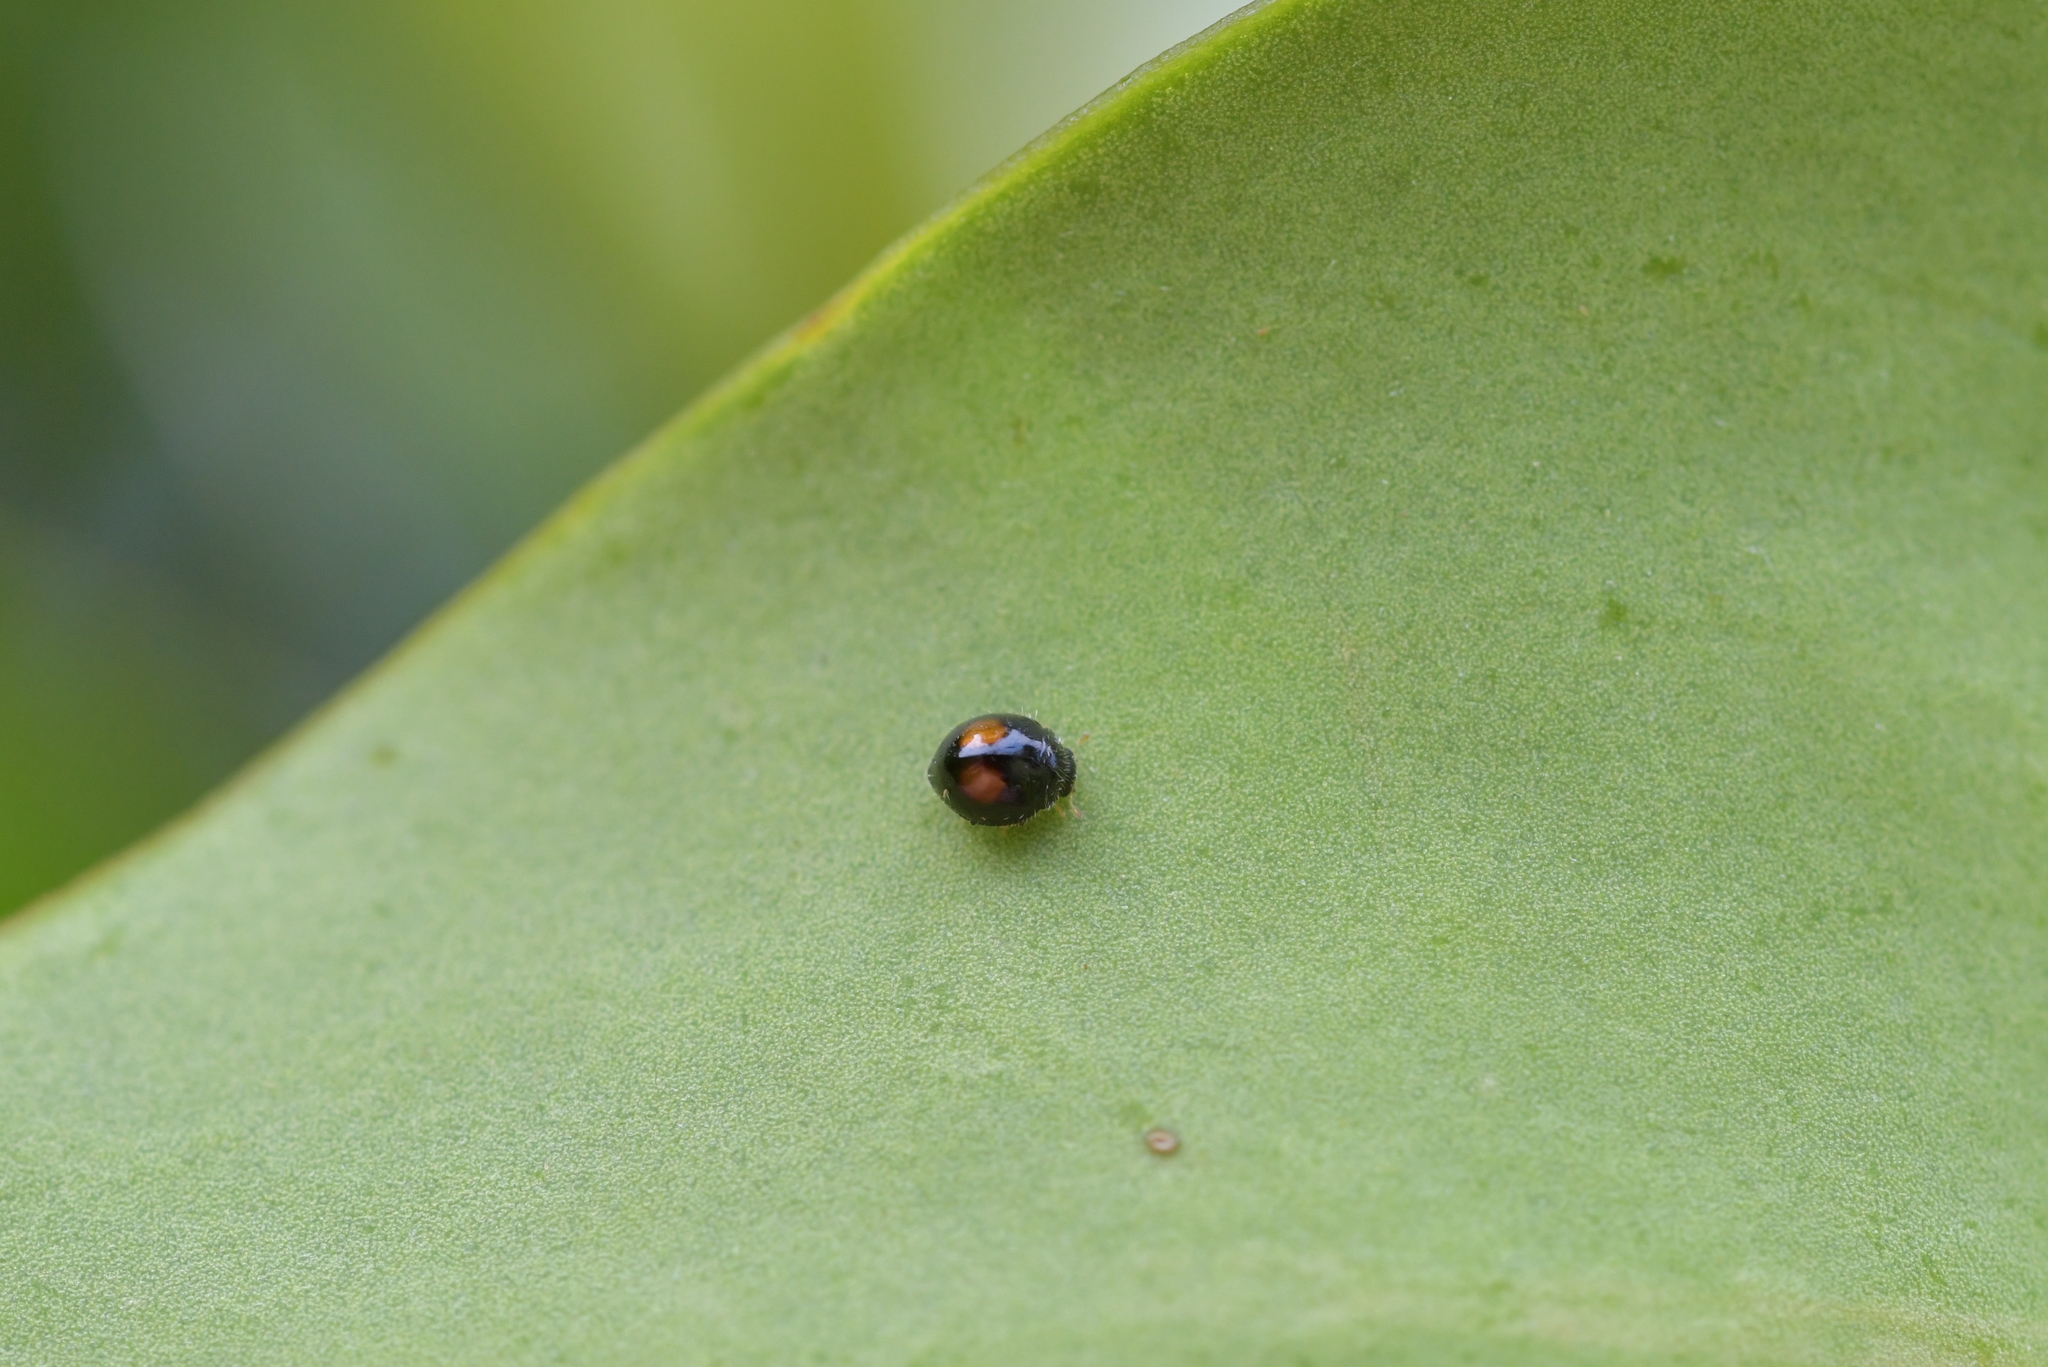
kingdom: Animalia
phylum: Arthropoda
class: Insecta
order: Coleoptera
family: Coccinellidae
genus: Serangium
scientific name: Serangium maculigerum
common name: Lady beetle
